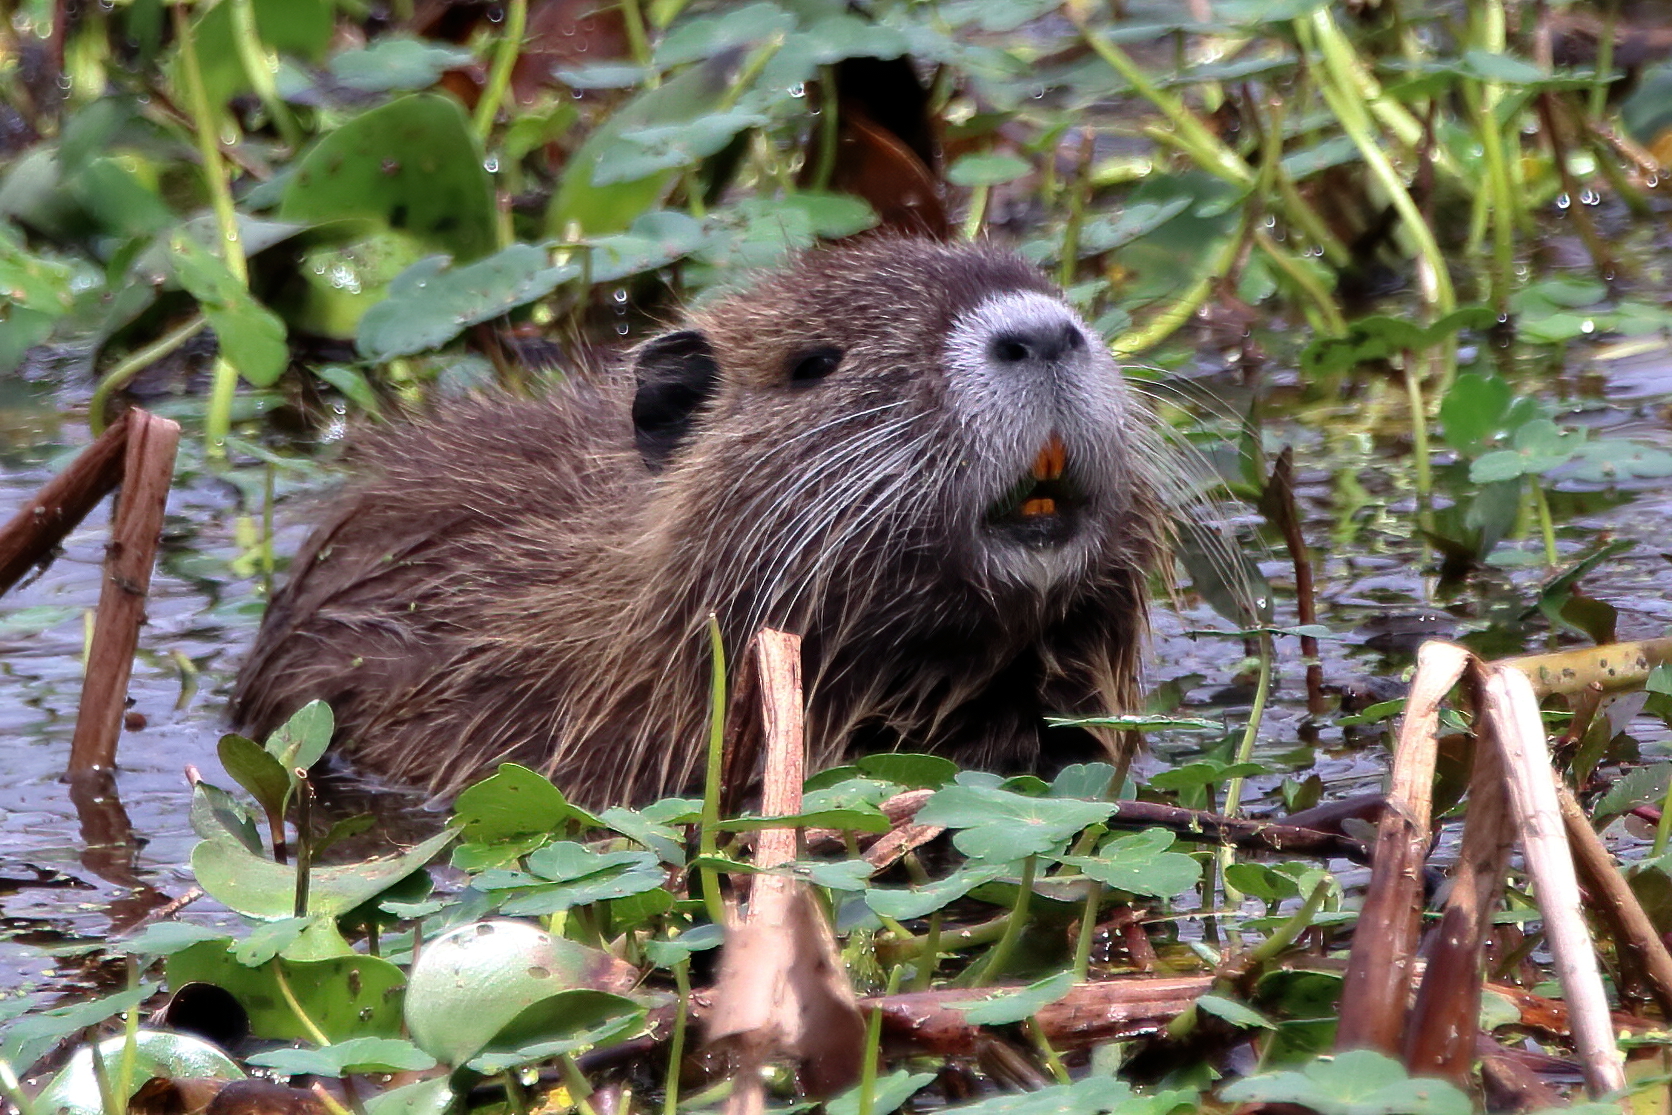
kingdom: Animalia
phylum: Chordata
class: Mammalia
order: Rodentia
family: Myocastoridae
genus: Myocastor
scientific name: Myocastor coypus
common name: Coypu
